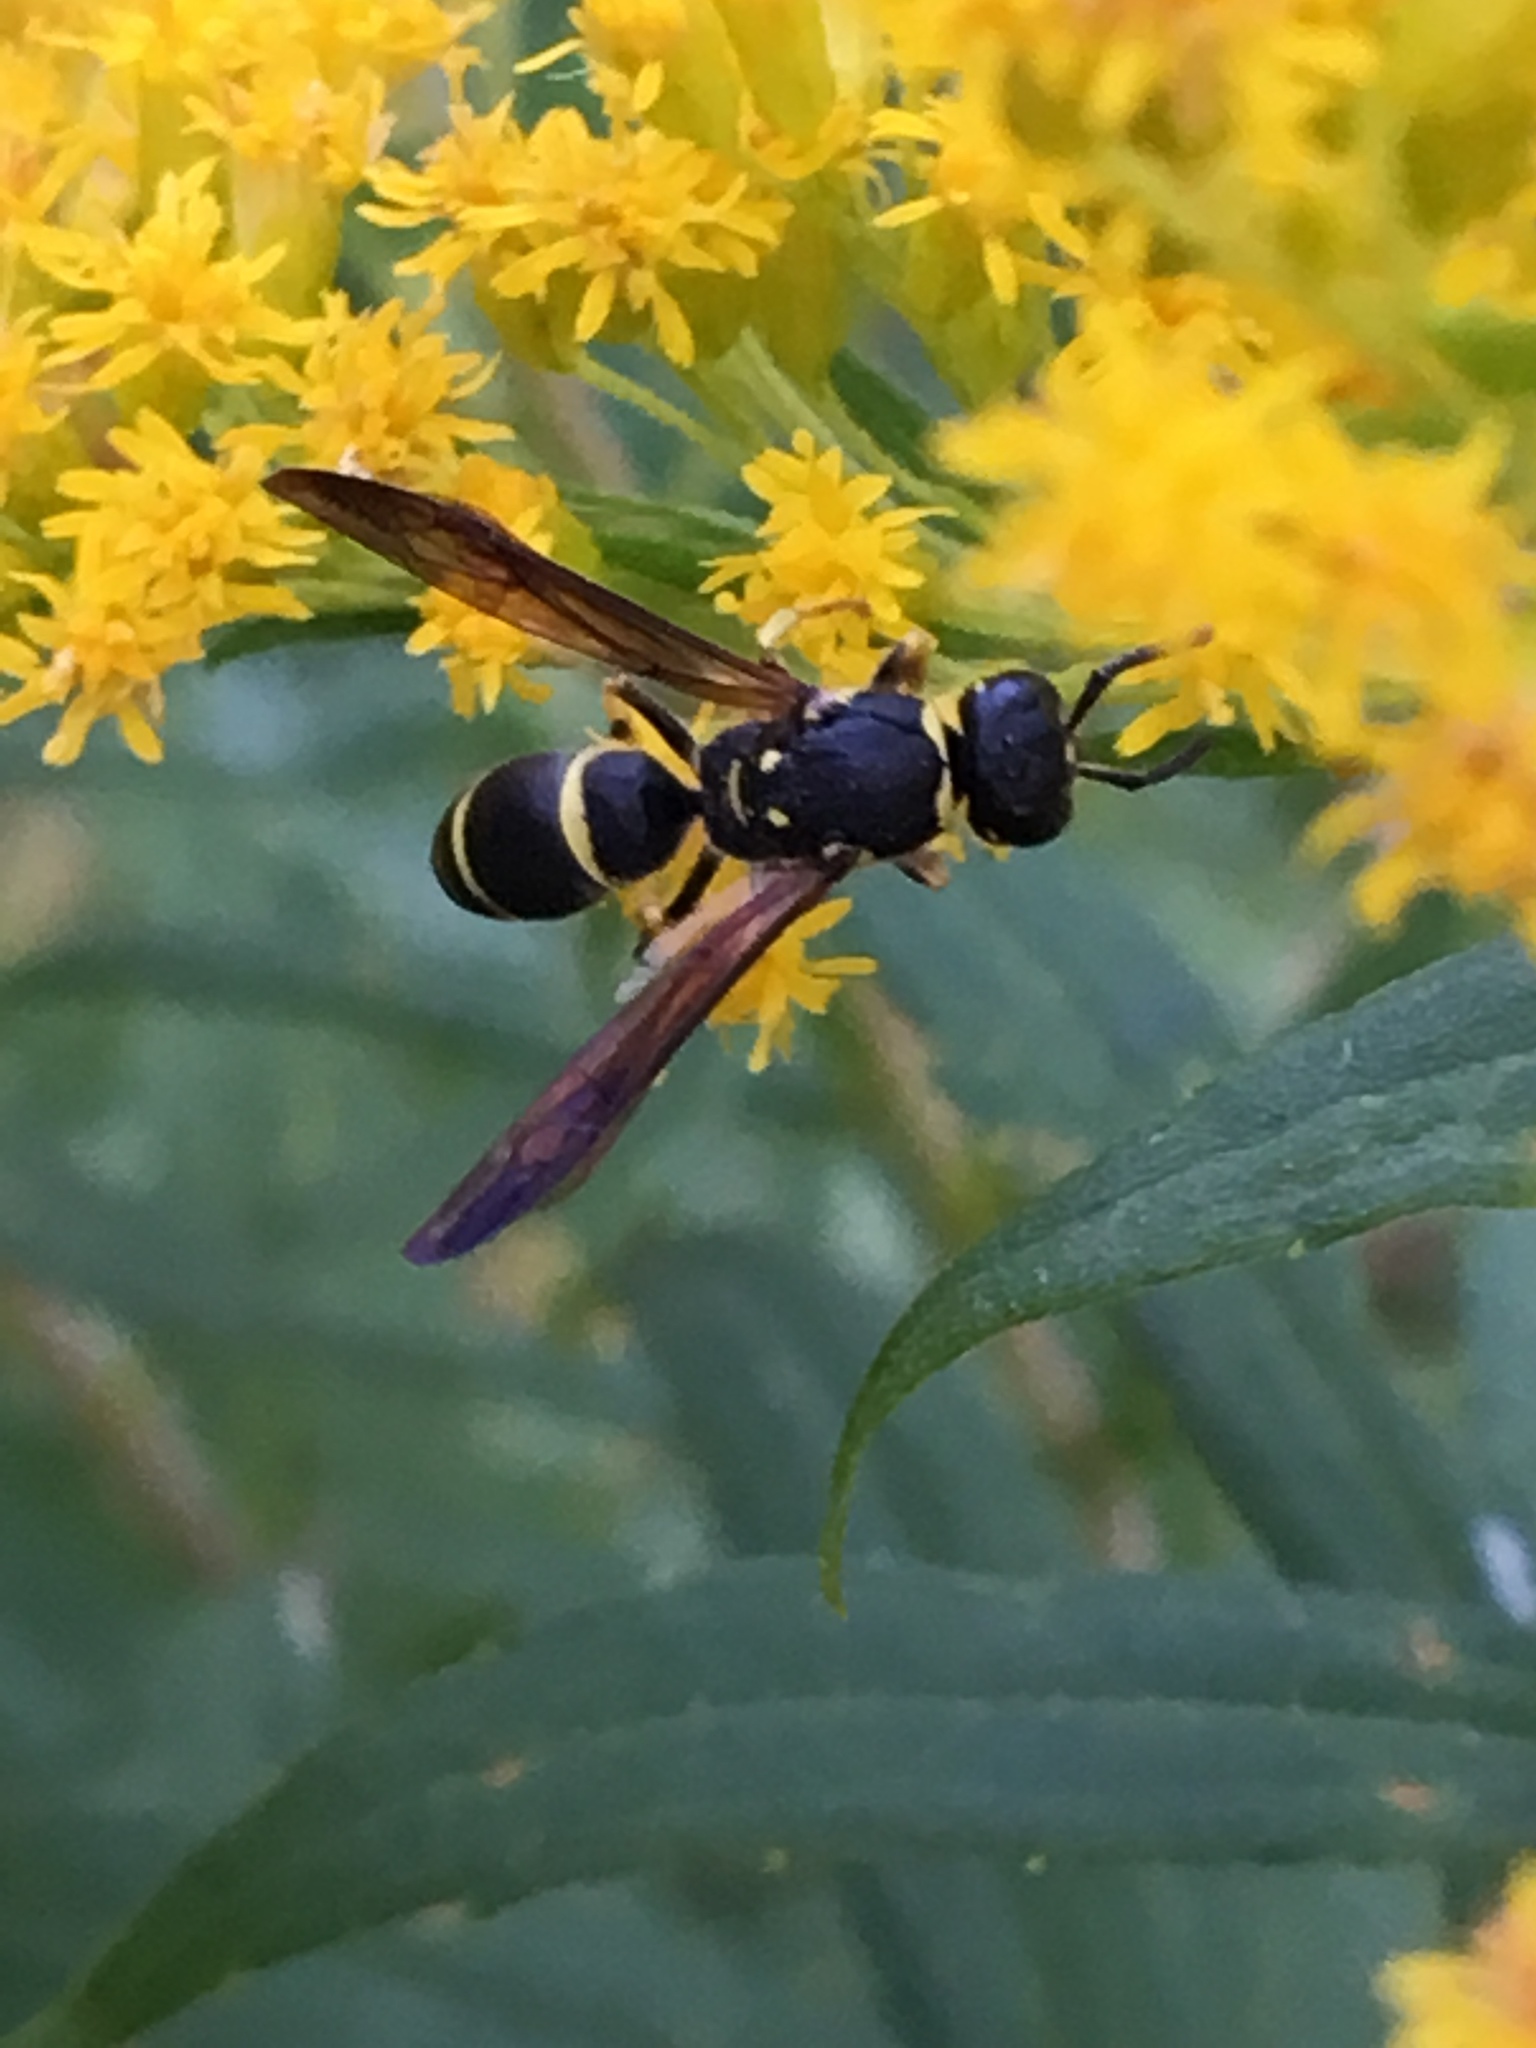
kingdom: Animalia
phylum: Arthropoda
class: Insecta
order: Hymenoptera
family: Vespidae
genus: Ancistrocerus
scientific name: Ancistrocerus adiabatus
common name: Bramble mason wasp
